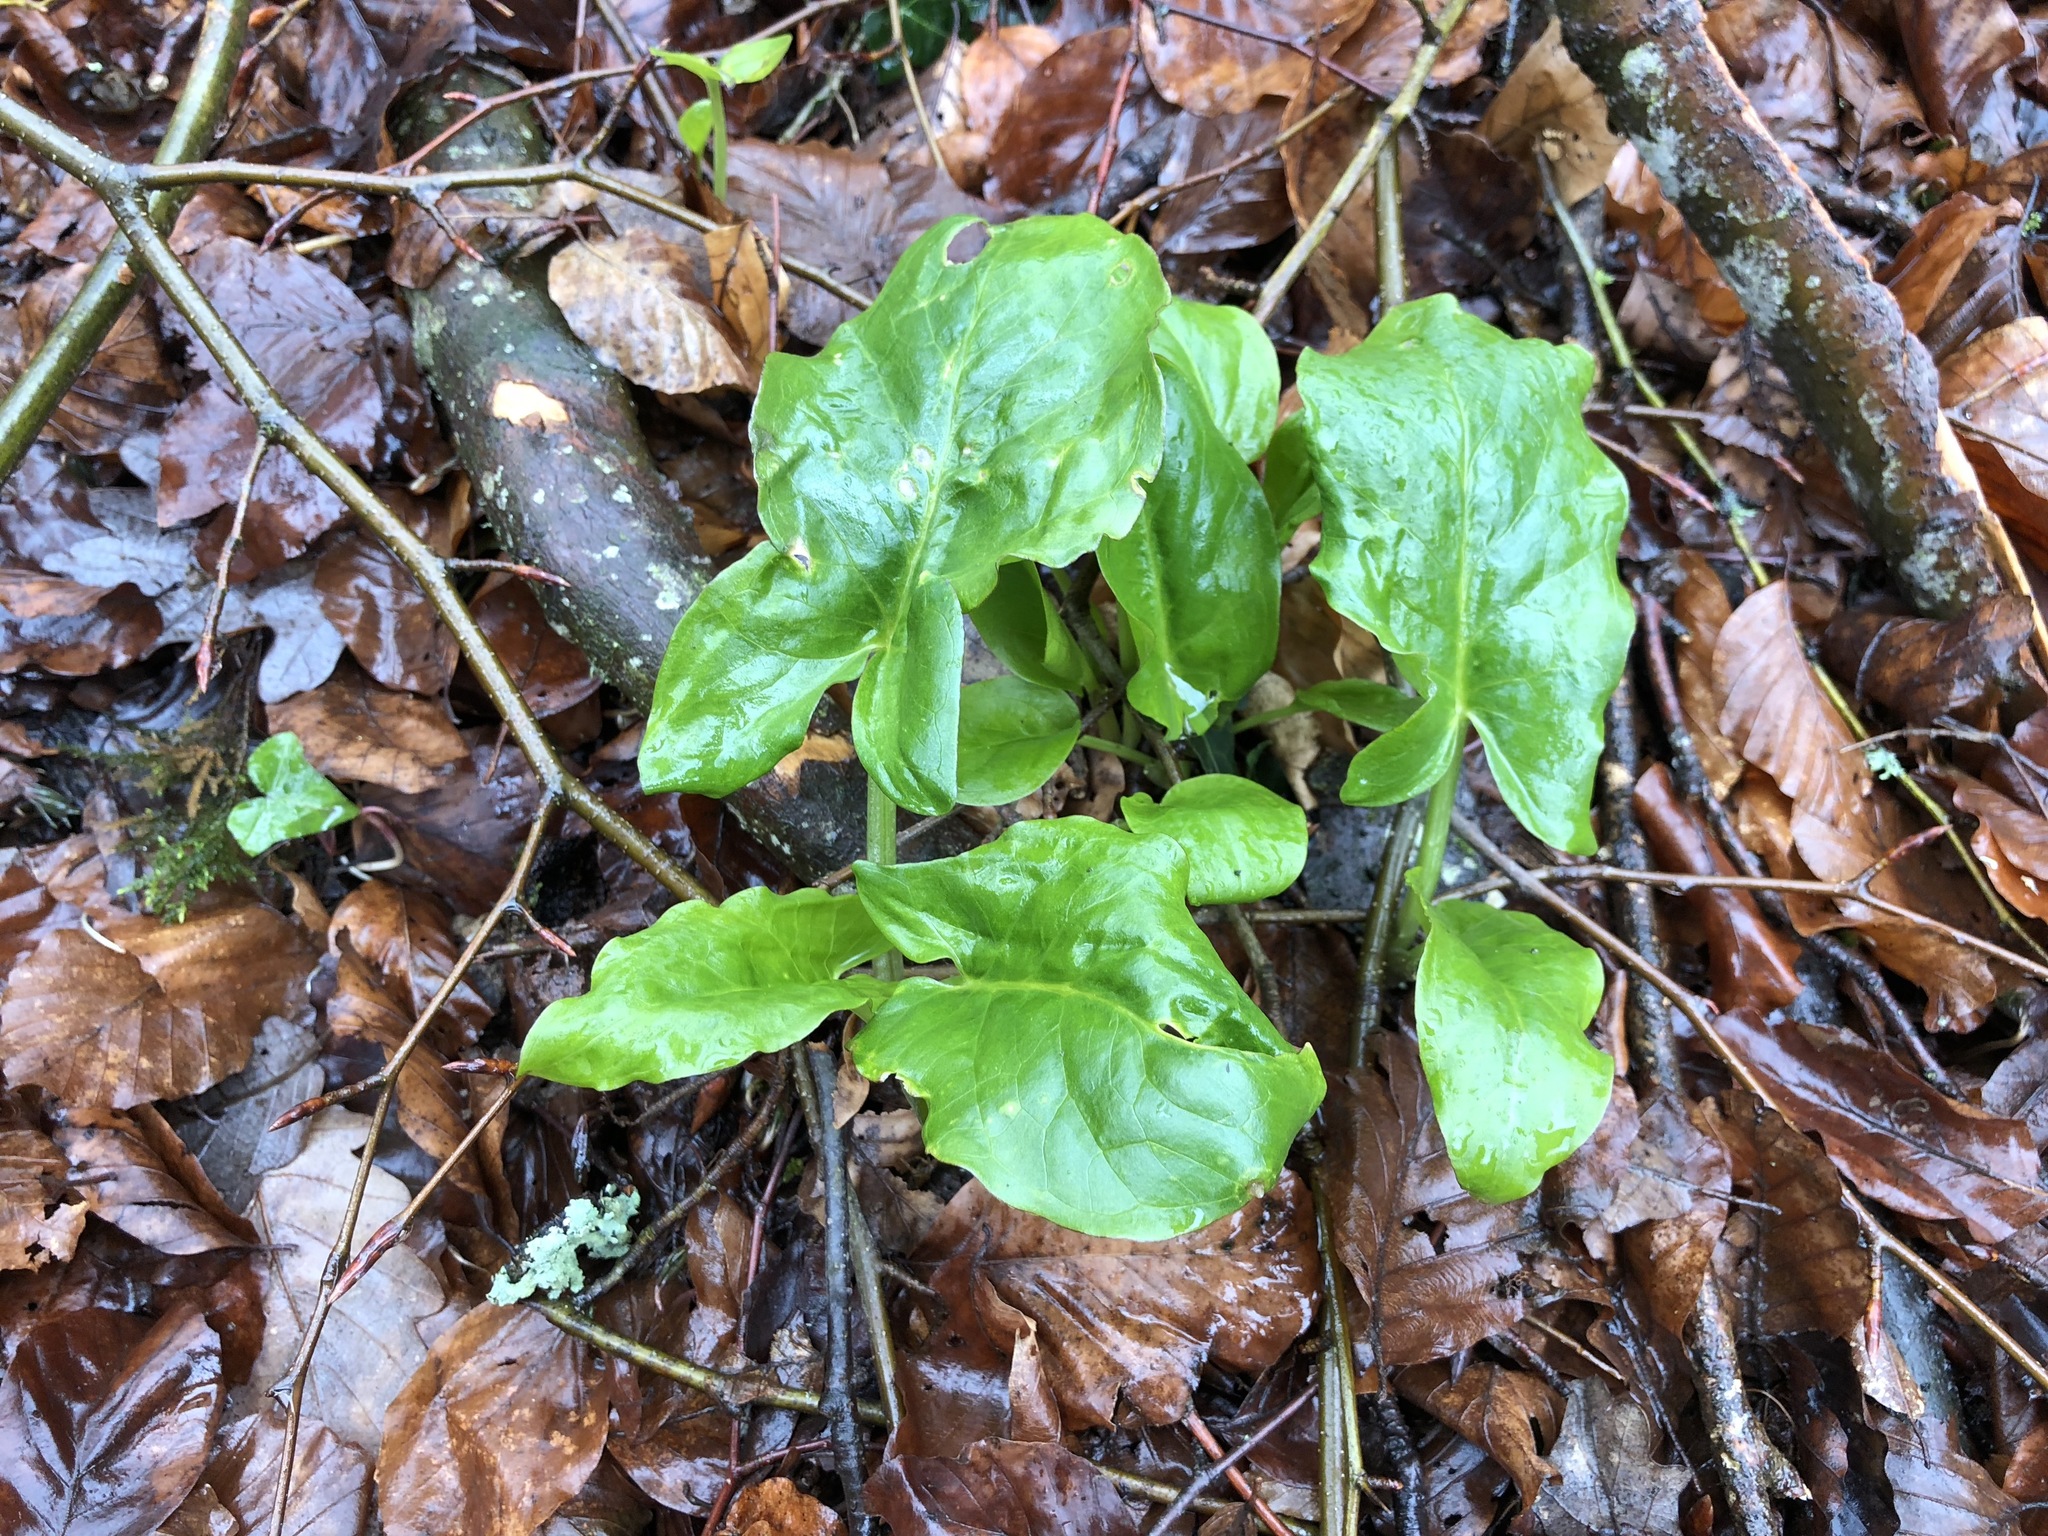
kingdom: Plantae
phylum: Tracheophyta
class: Liliopsida
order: Alismatales
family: Araceae
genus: Arum
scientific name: Arum maculatum
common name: Lords-and-ladies
